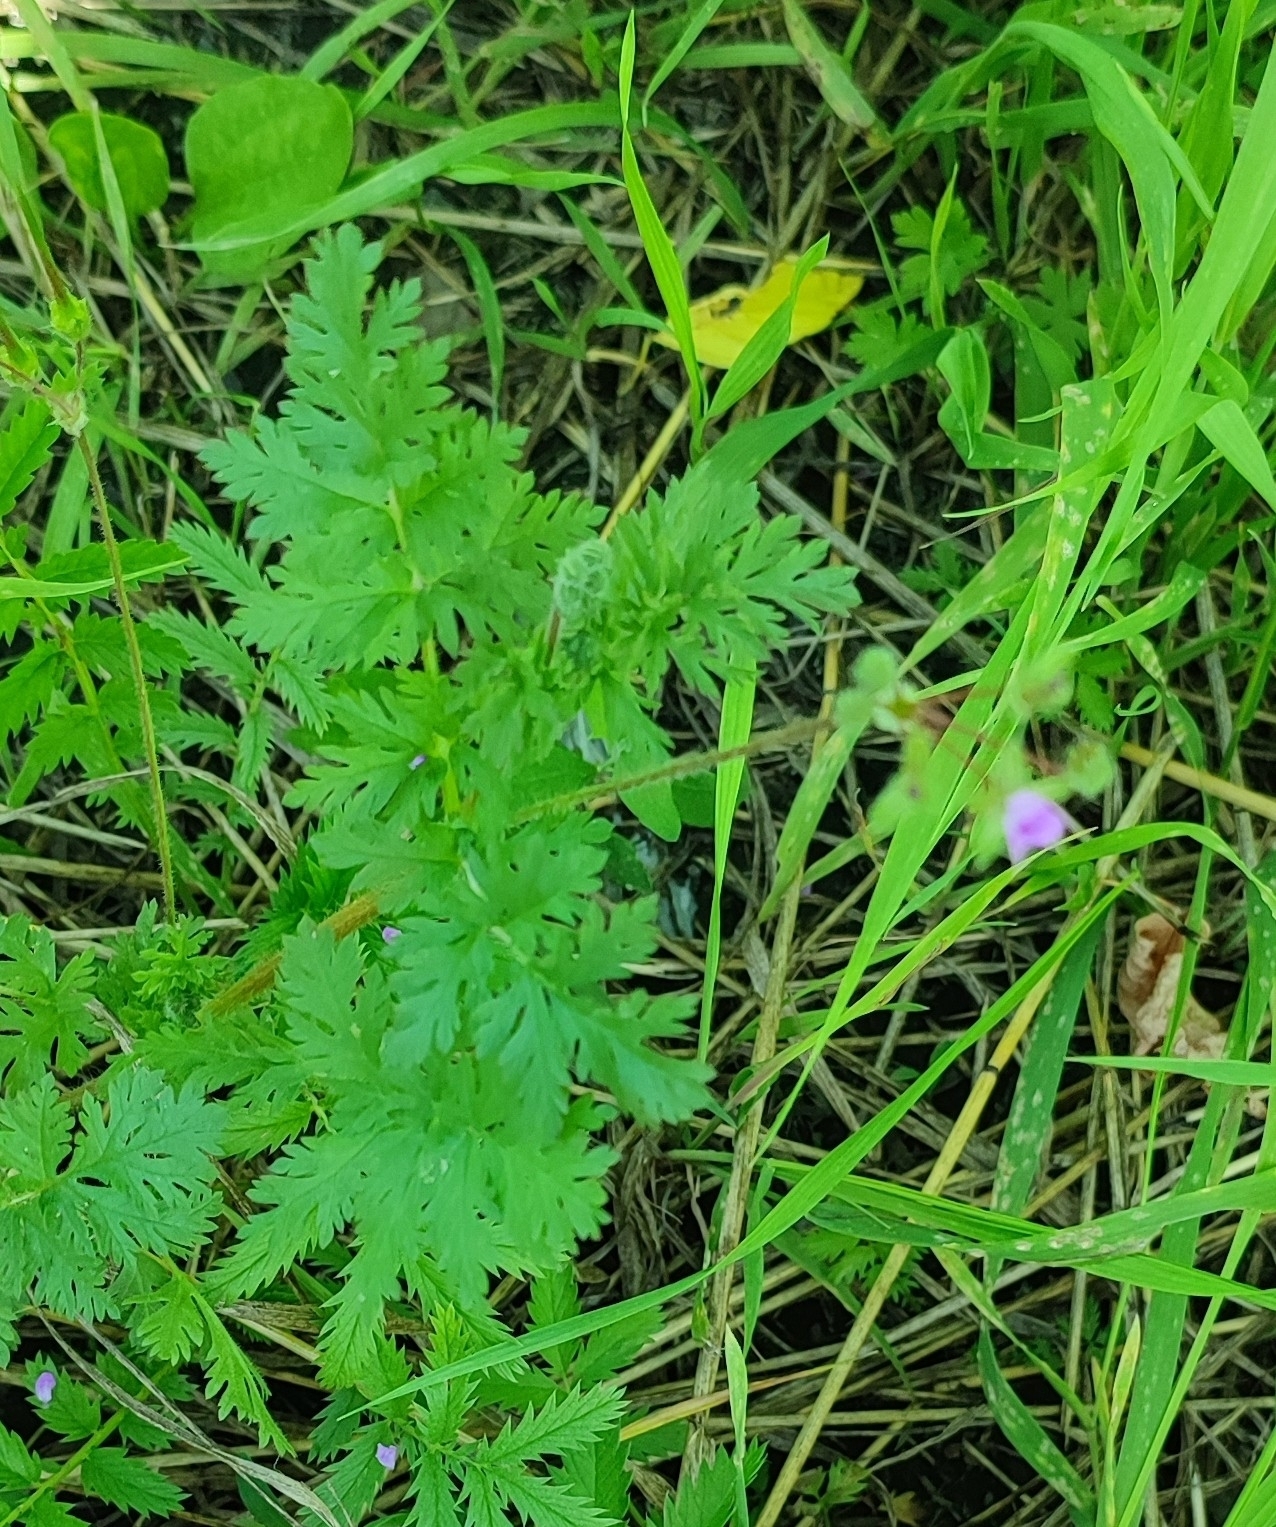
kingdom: Plantae
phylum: Tracheophyta
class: Magnoliopsida
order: Geraniales
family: Geraniaceae
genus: Erodium
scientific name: Erodium cicutarium
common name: Common stork's-bill
